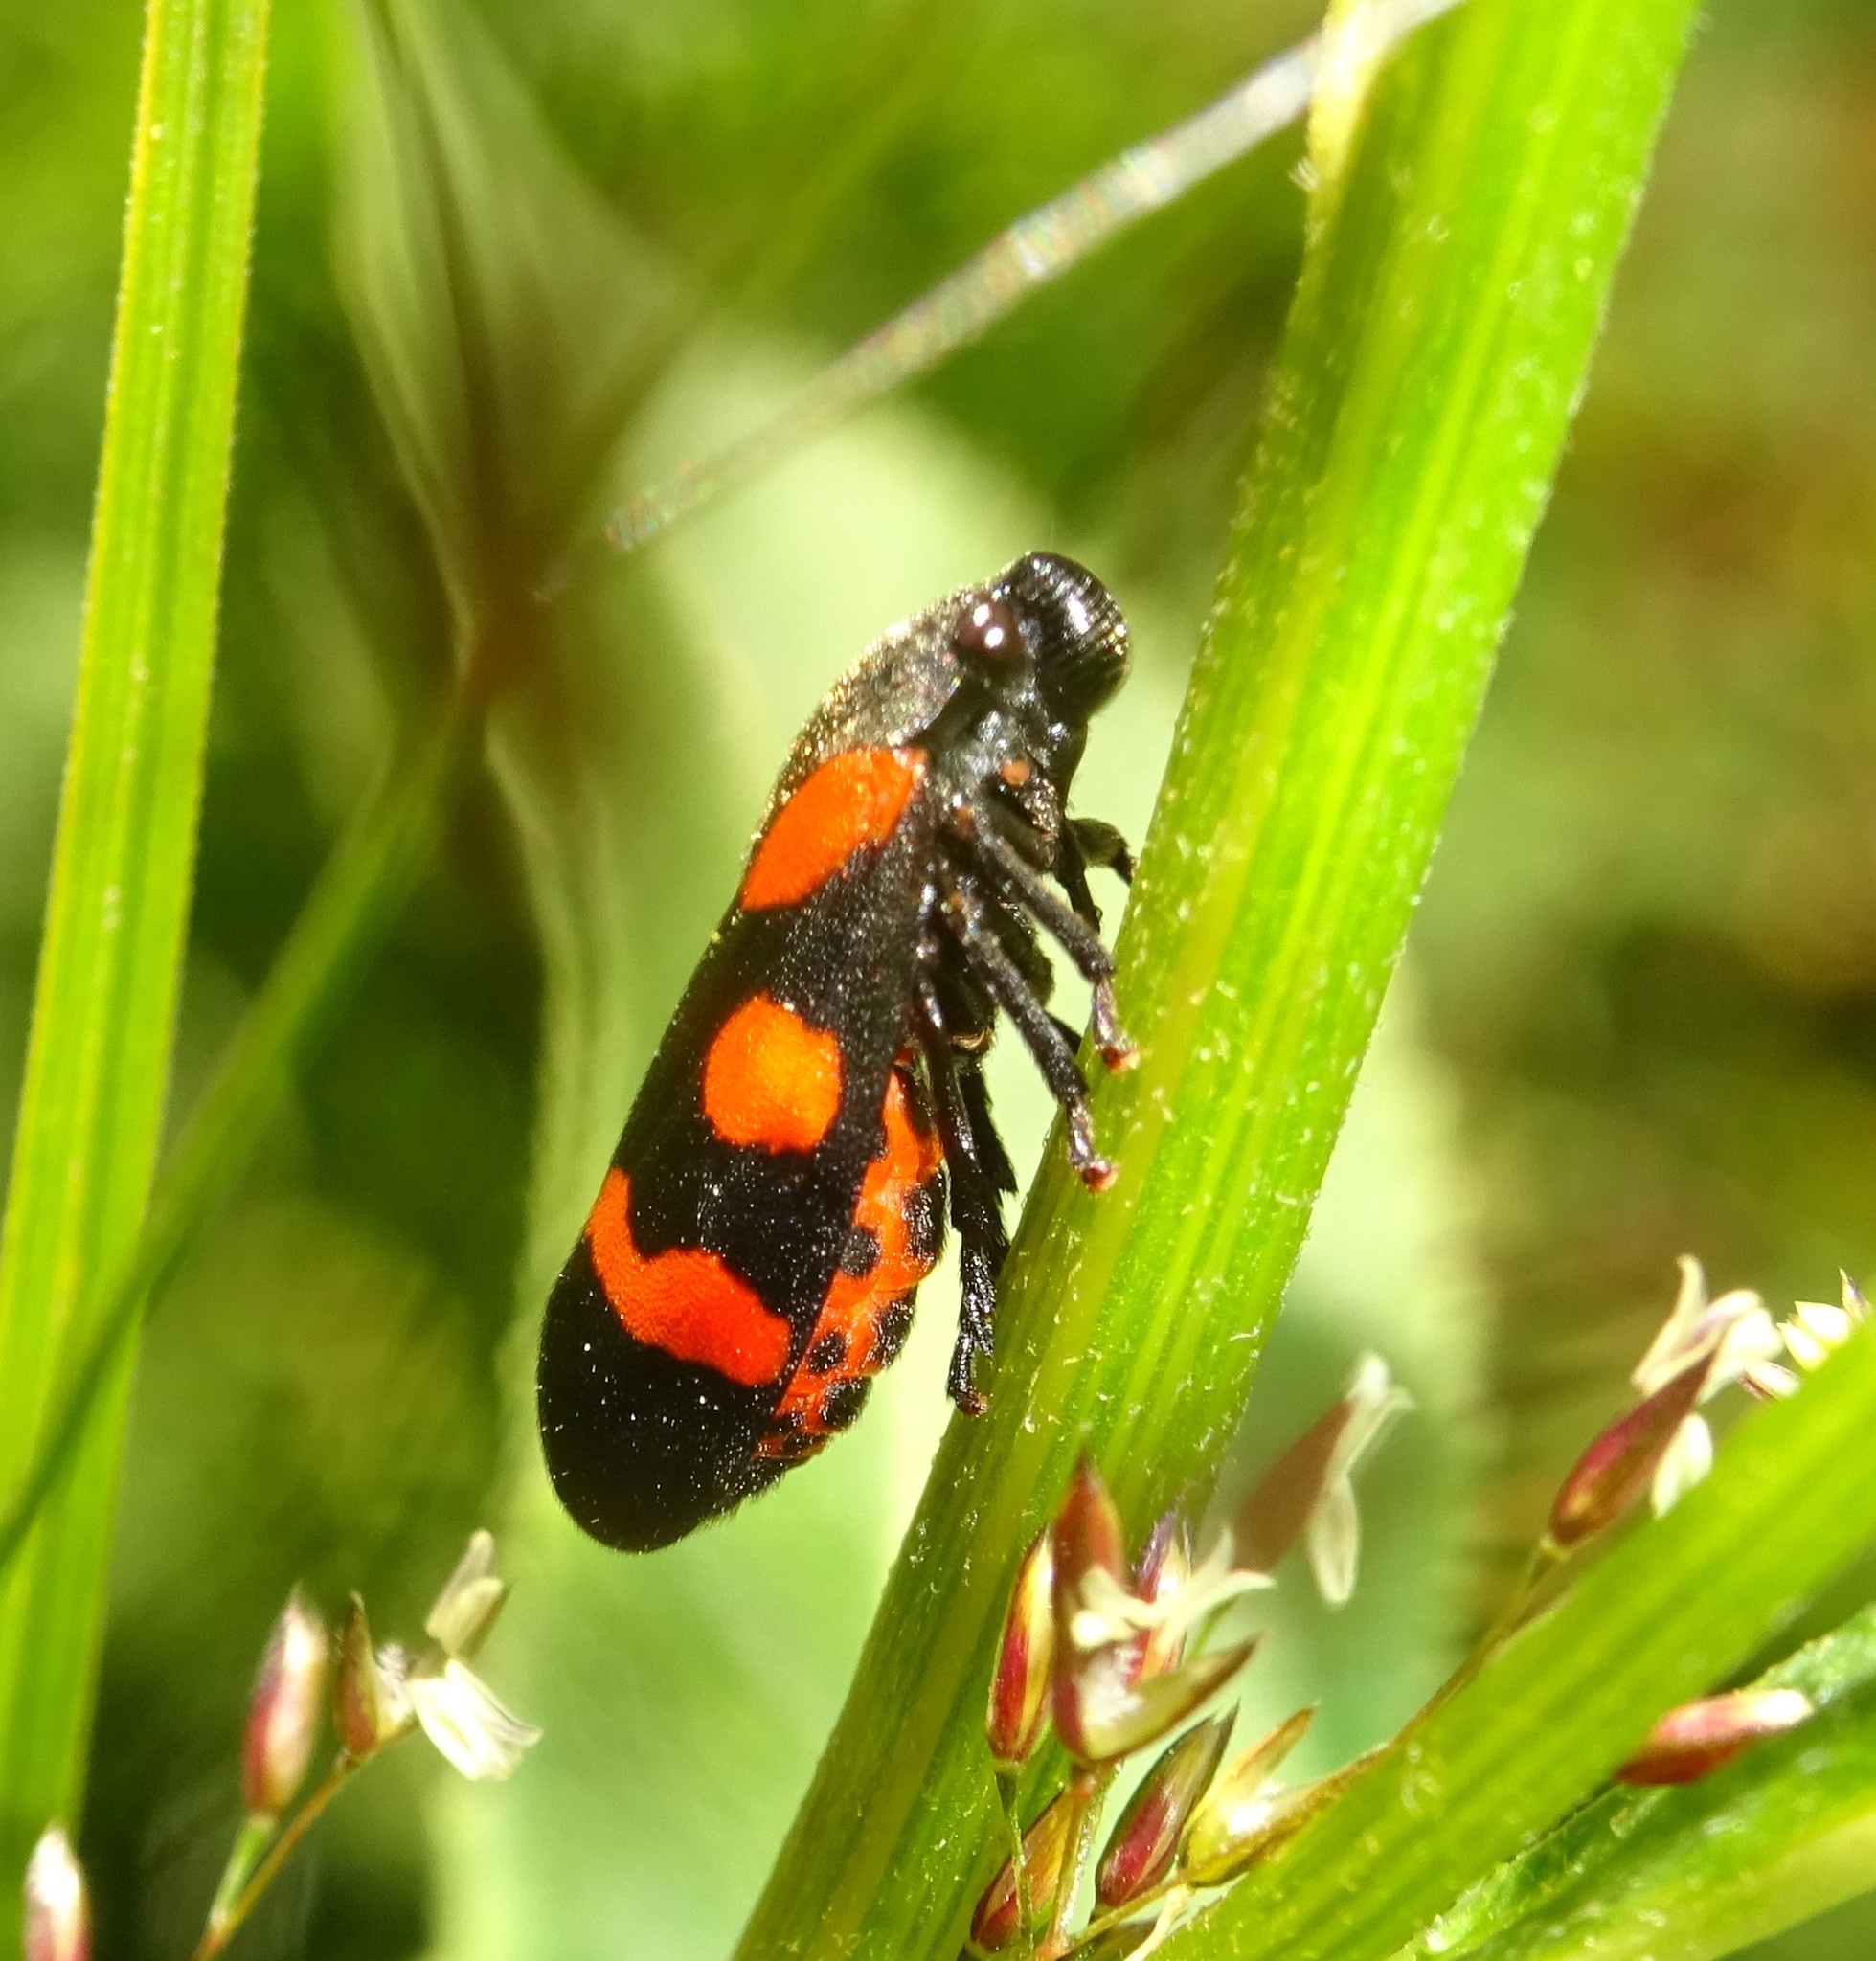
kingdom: Animalia
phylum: Arthropoda
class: Insecta
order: Hemiptera
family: Cercopidae
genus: Cercopis
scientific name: Cercopis sanguinolenta
